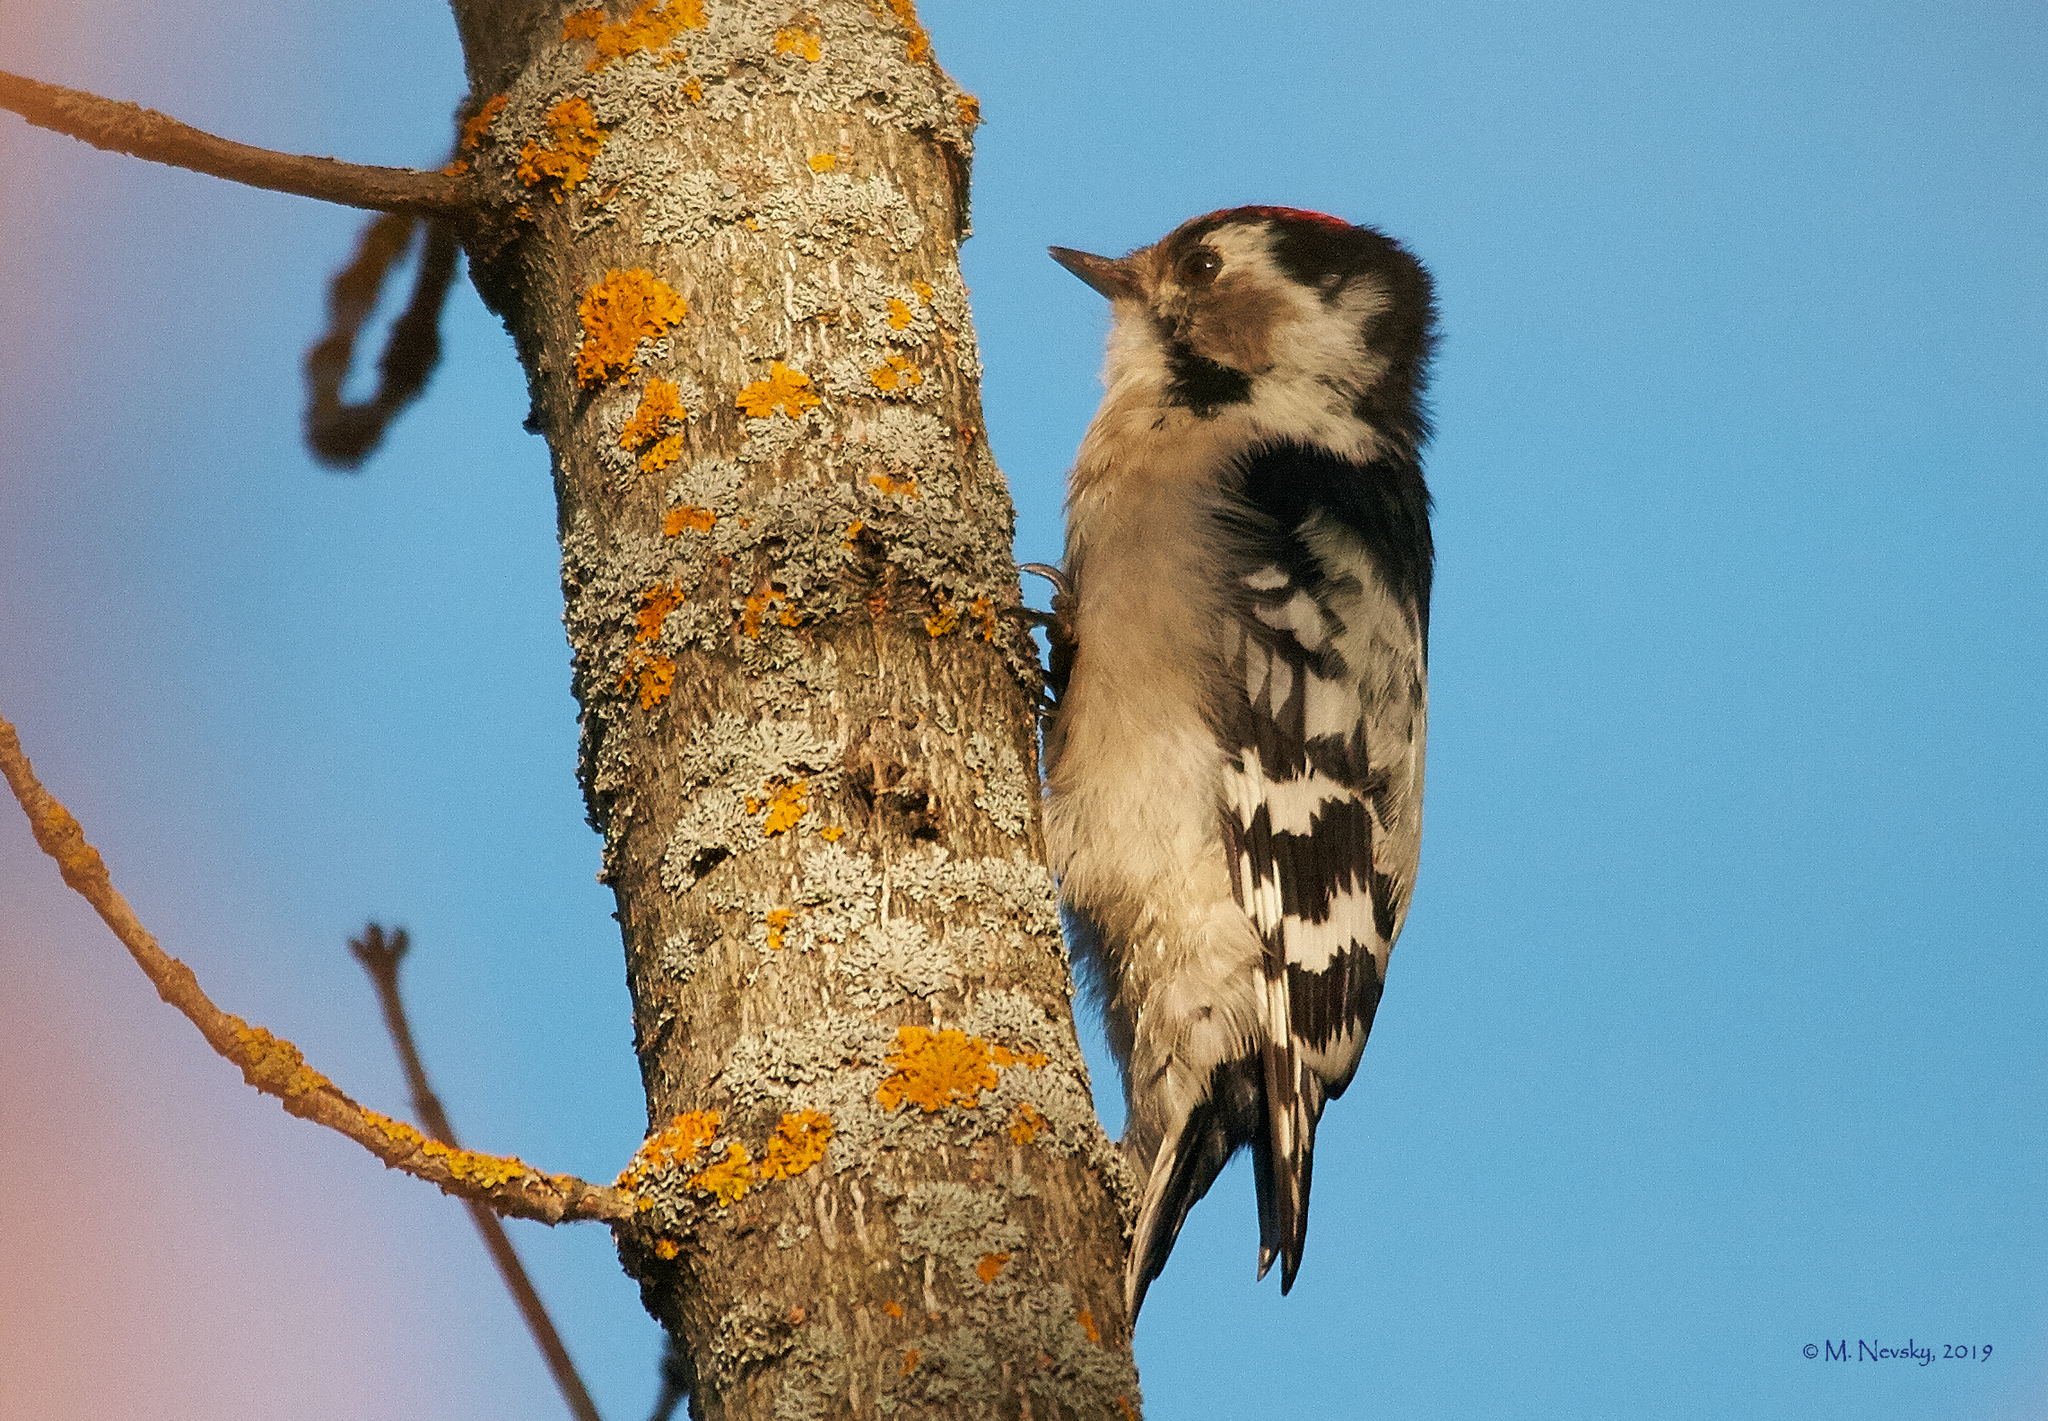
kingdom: Animalia
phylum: Chordata
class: Aves
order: Piciformes
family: Picidae
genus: Dryobates
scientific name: Dryobates minor
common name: Lesser spotted woodpecker
